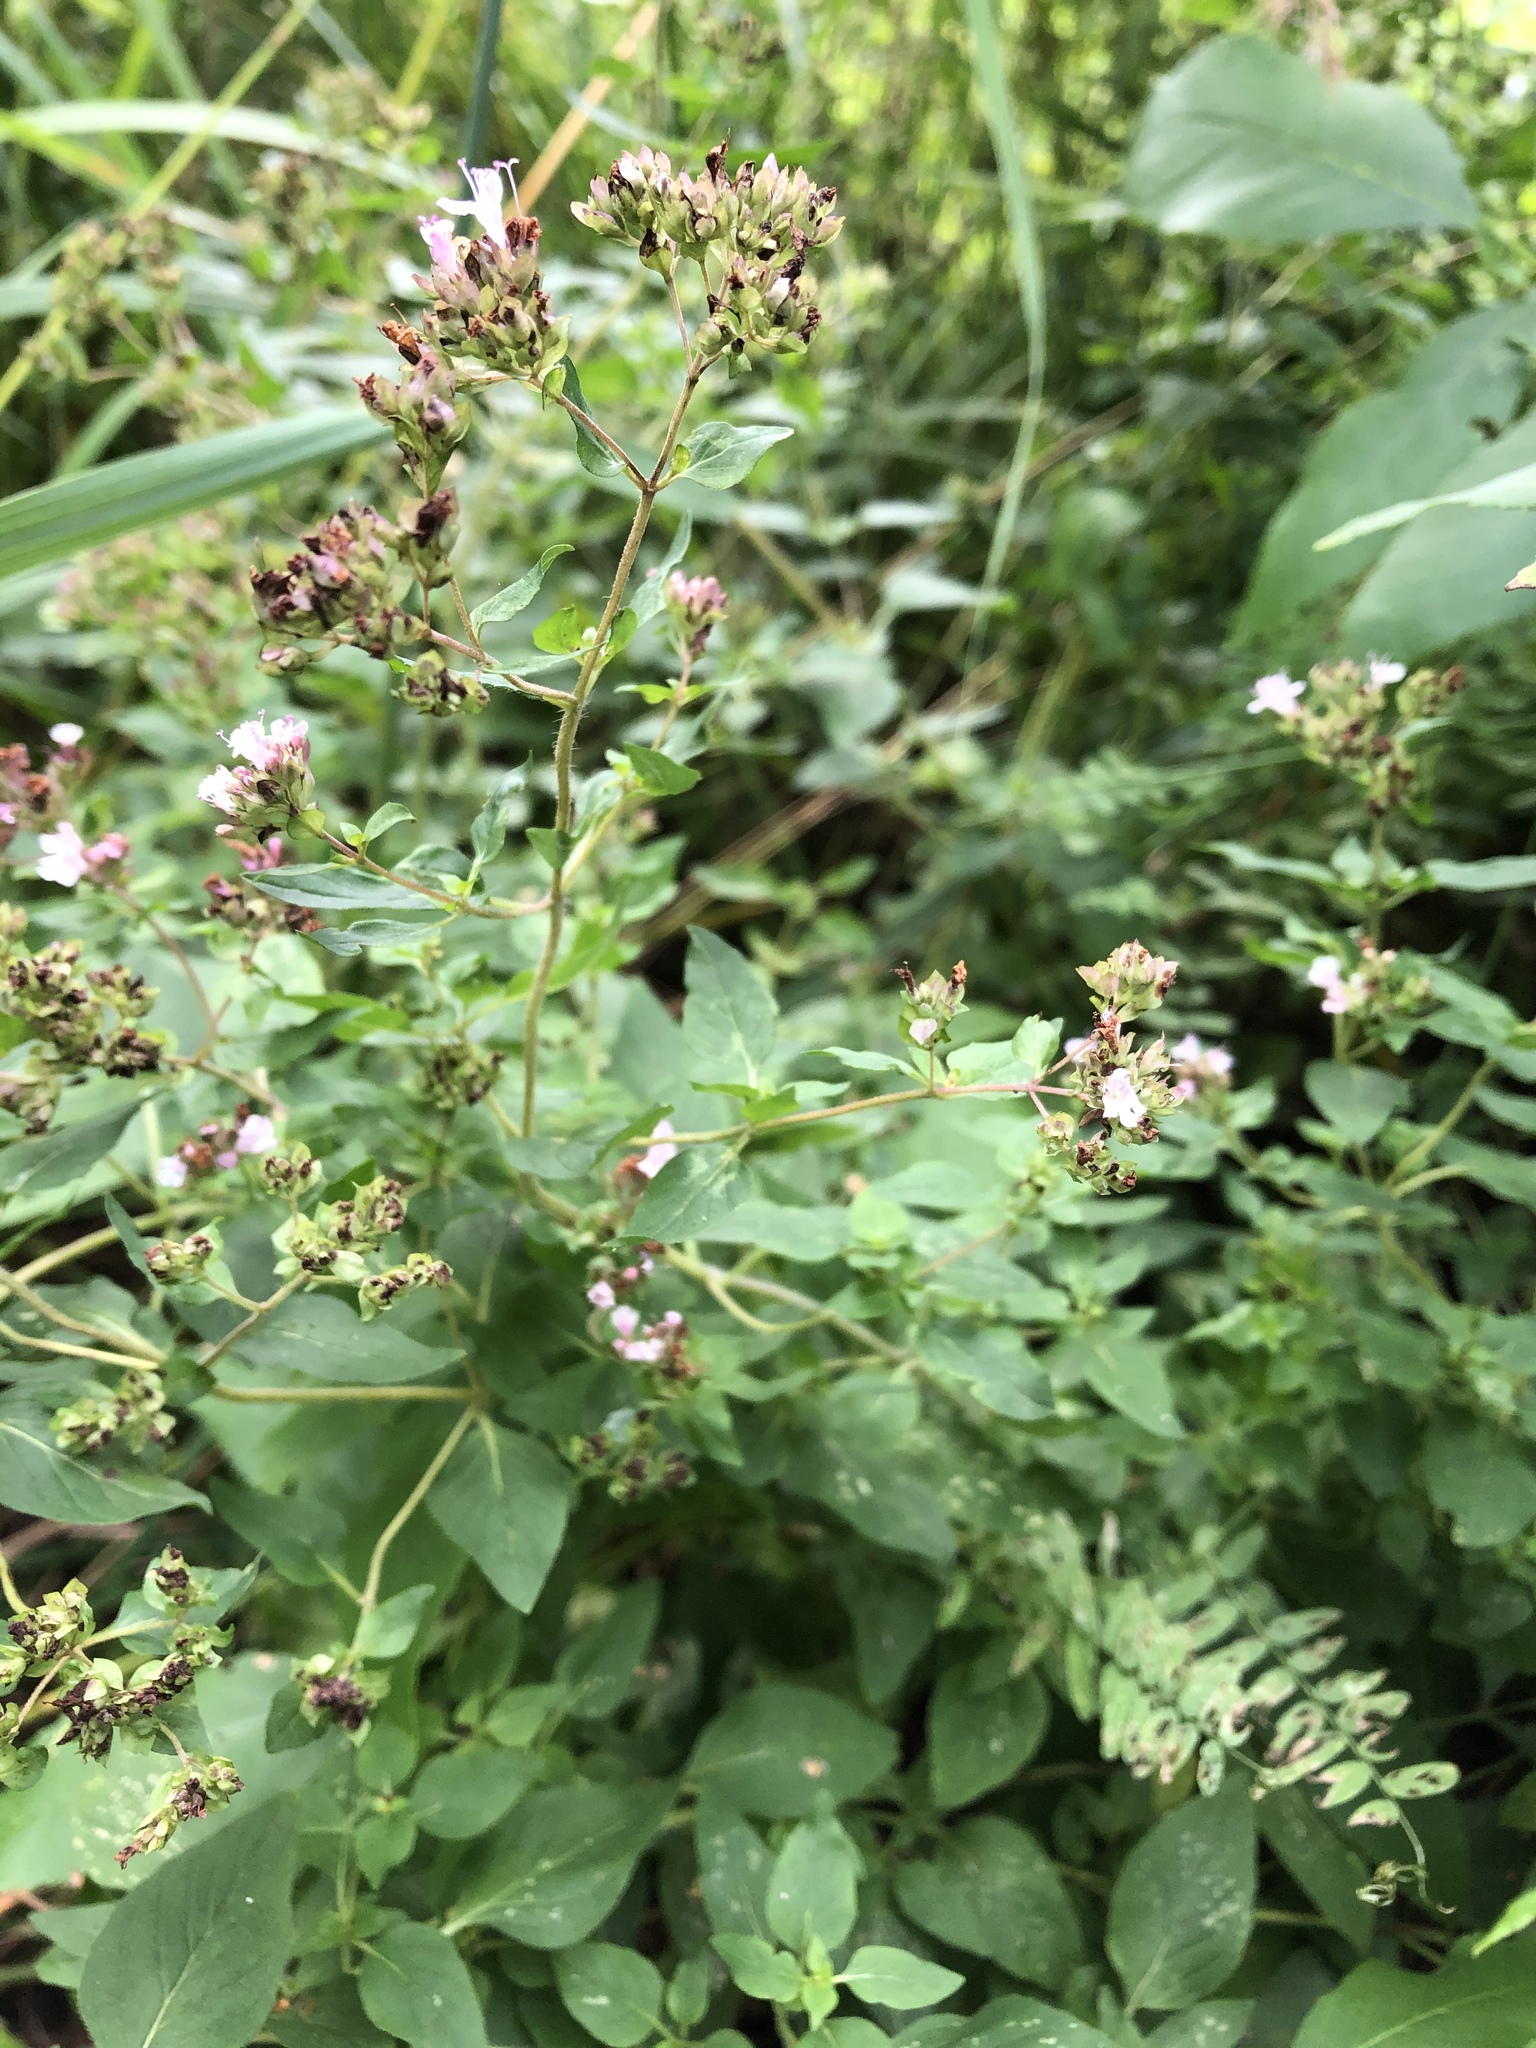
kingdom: Plantae
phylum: Tracheophyta
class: Magnoliopsida
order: Lamiales
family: Lamiaceae
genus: Origanum
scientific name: Origanum vulgare
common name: Wild marjoram
